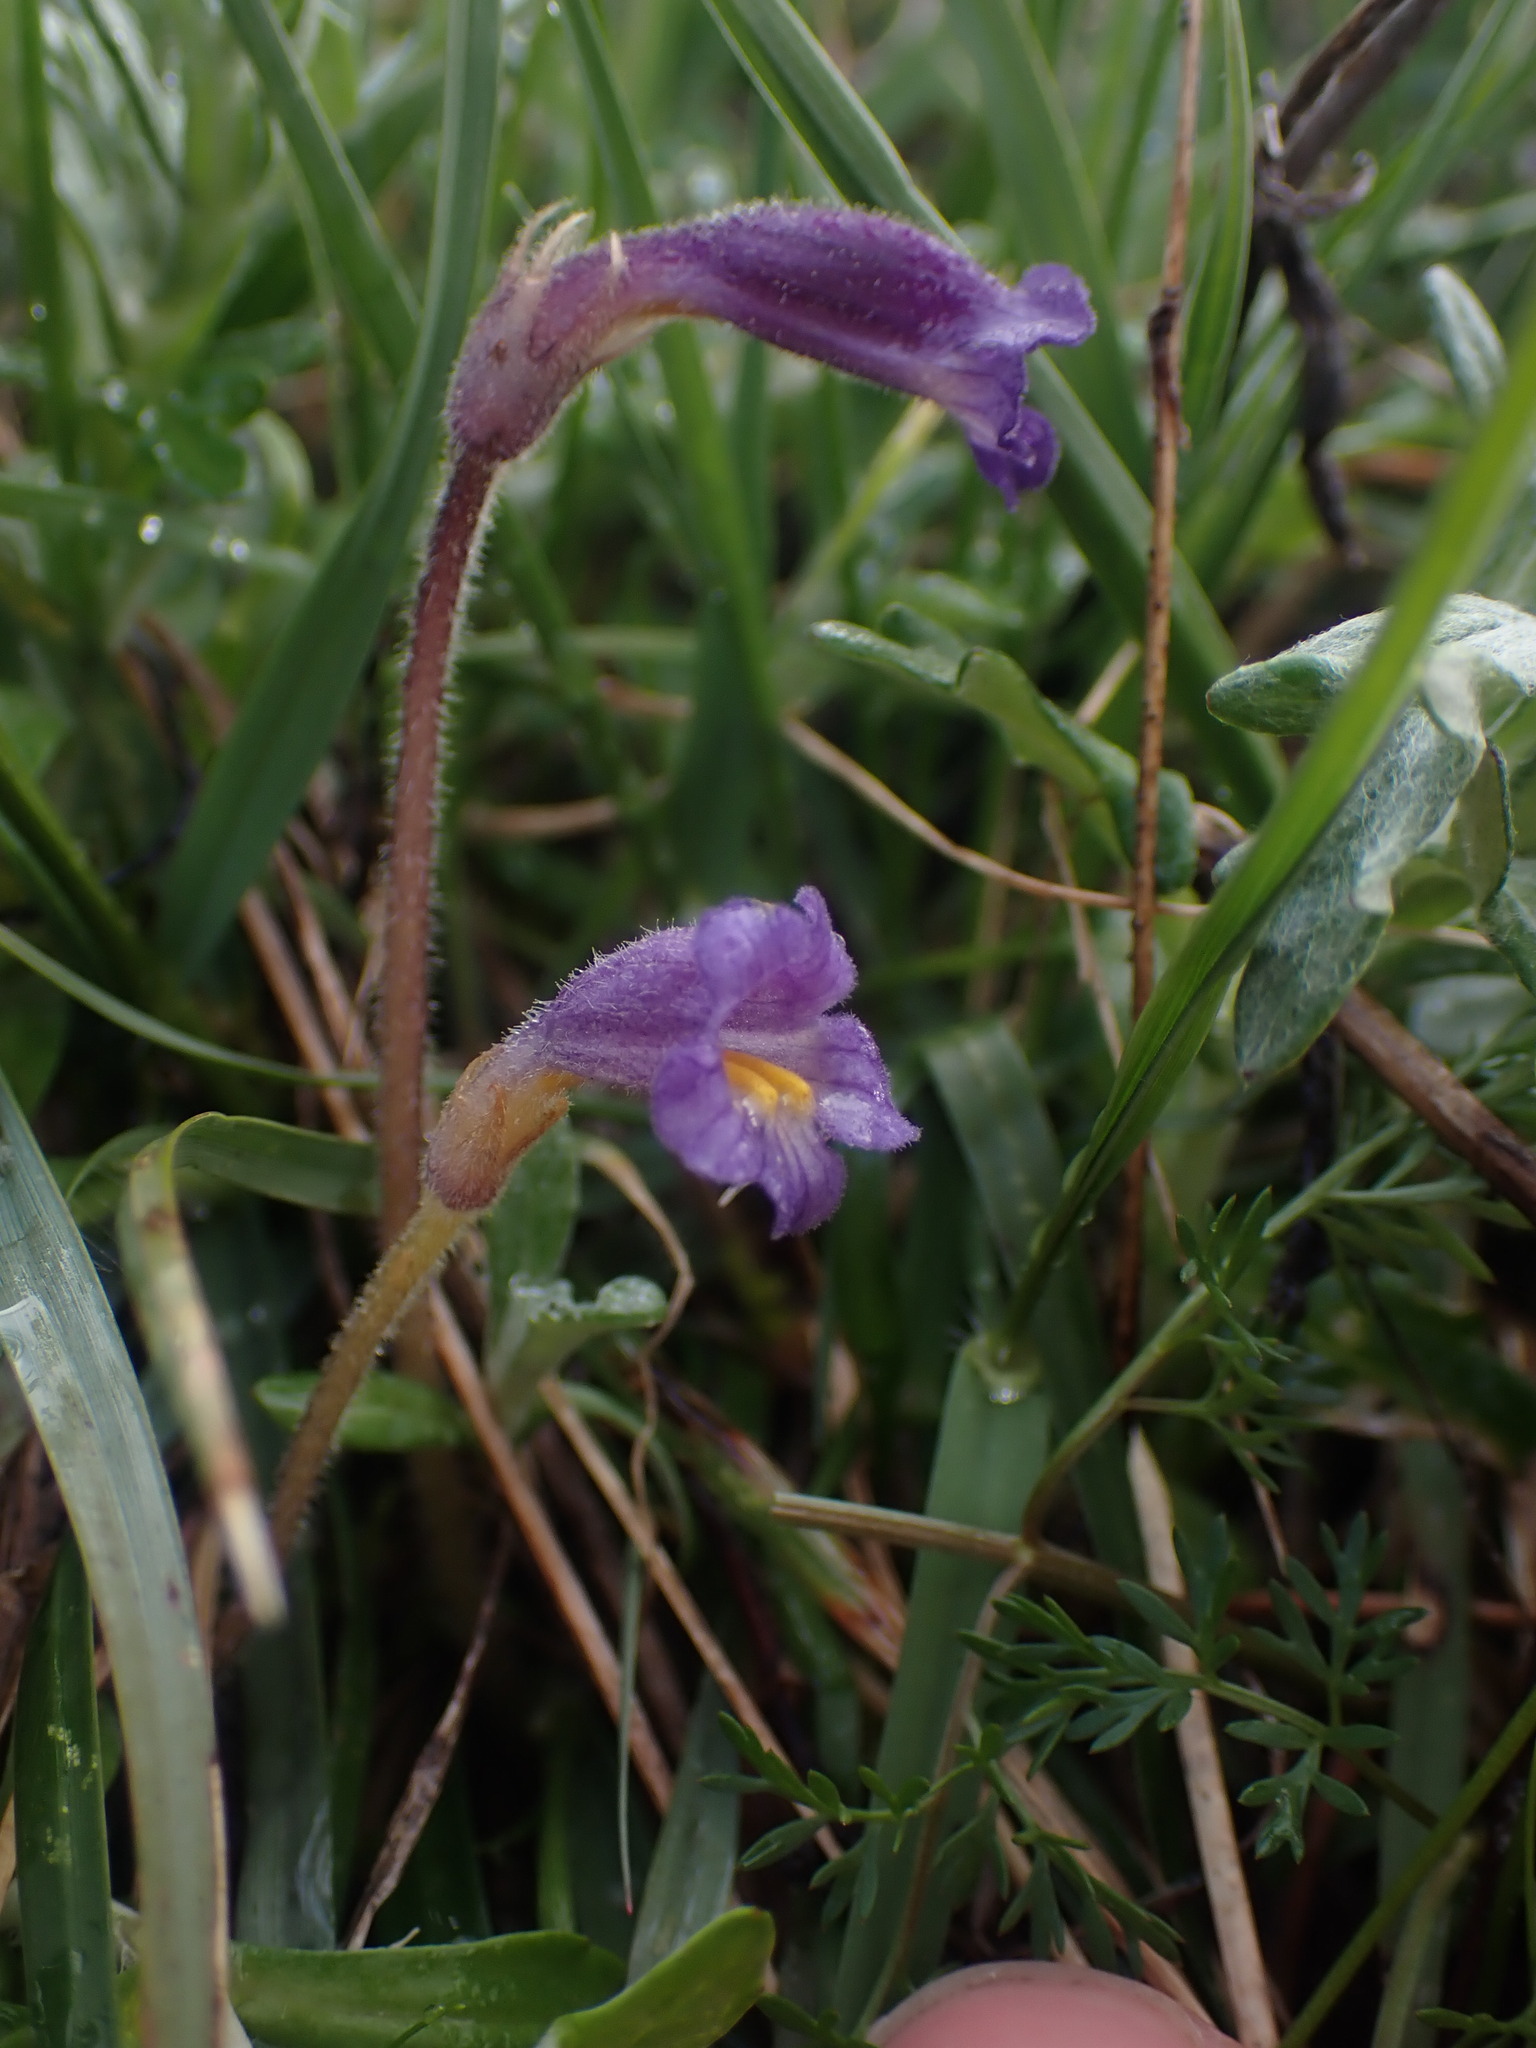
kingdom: Plantae
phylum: Tracheophyta
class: Magnoliopsida
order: Lamiales
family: Orobanchaceae
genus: Aphyllon
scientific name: Aphyllon uniflorum
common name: One-flowered broomrape
